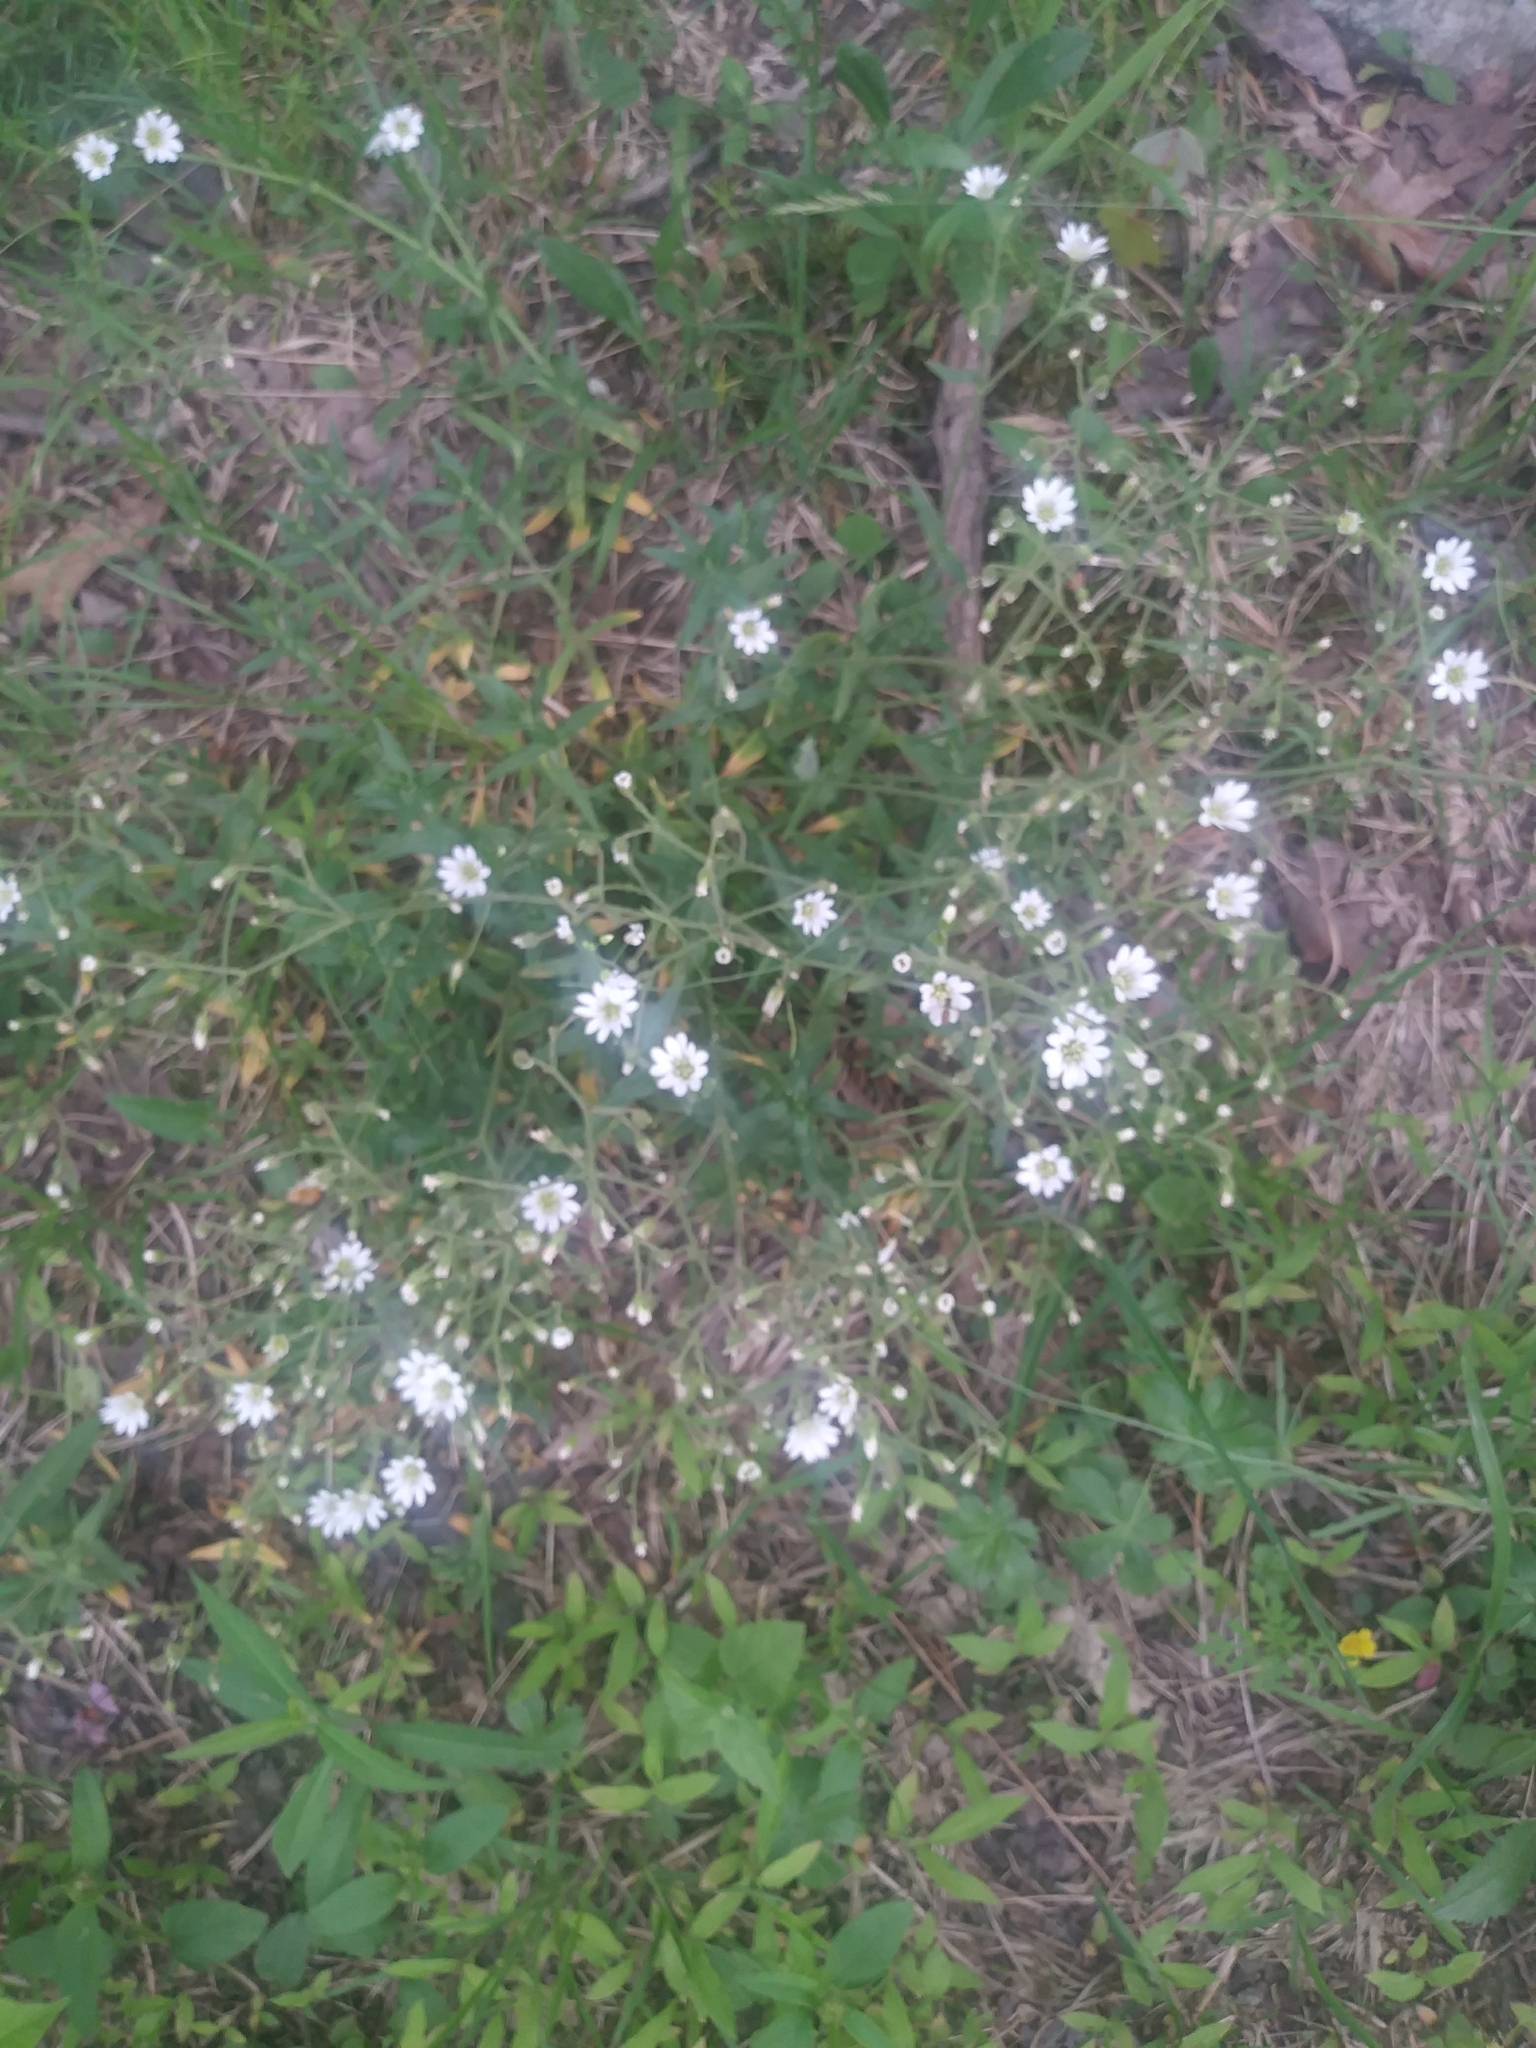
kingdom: Plantae
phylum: Tracheophyta
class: Magnoliopsida
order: Caryophyllales
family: Caryophyllaceae
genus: Cerastium
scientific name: Cerastium velutinum
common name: Barren chickweed
